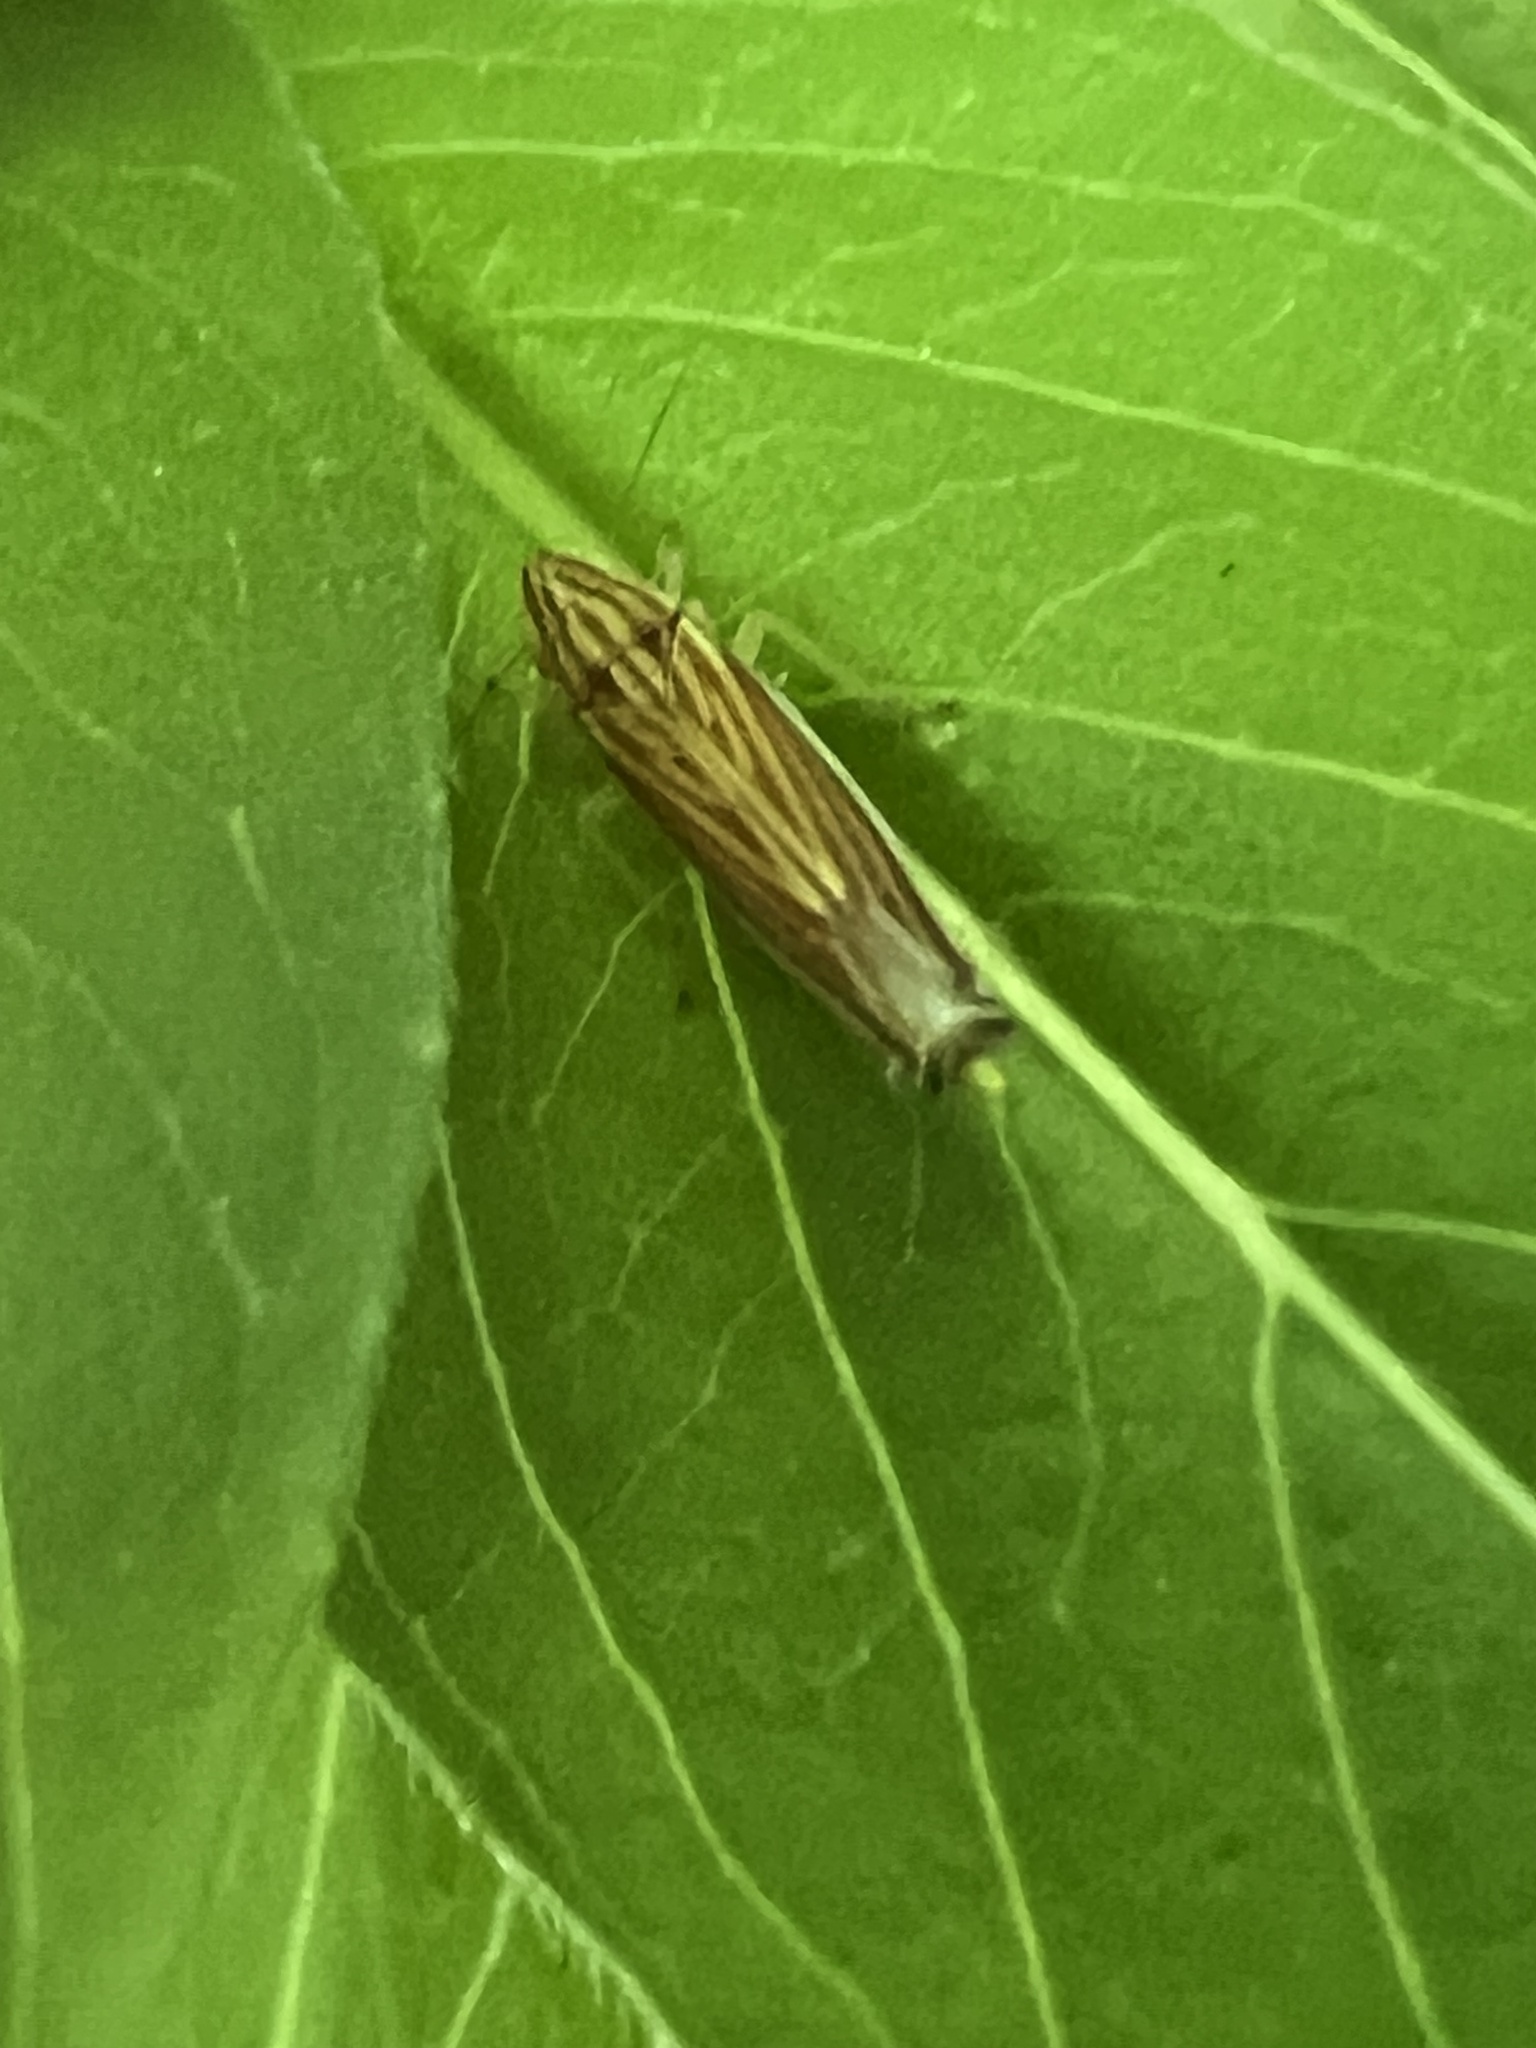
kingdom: Animalia
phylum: Arthropoda
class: Insecta
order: Hemiptera
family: Cicadellidae
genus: Sibovia
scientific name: Sibovia occatoria
